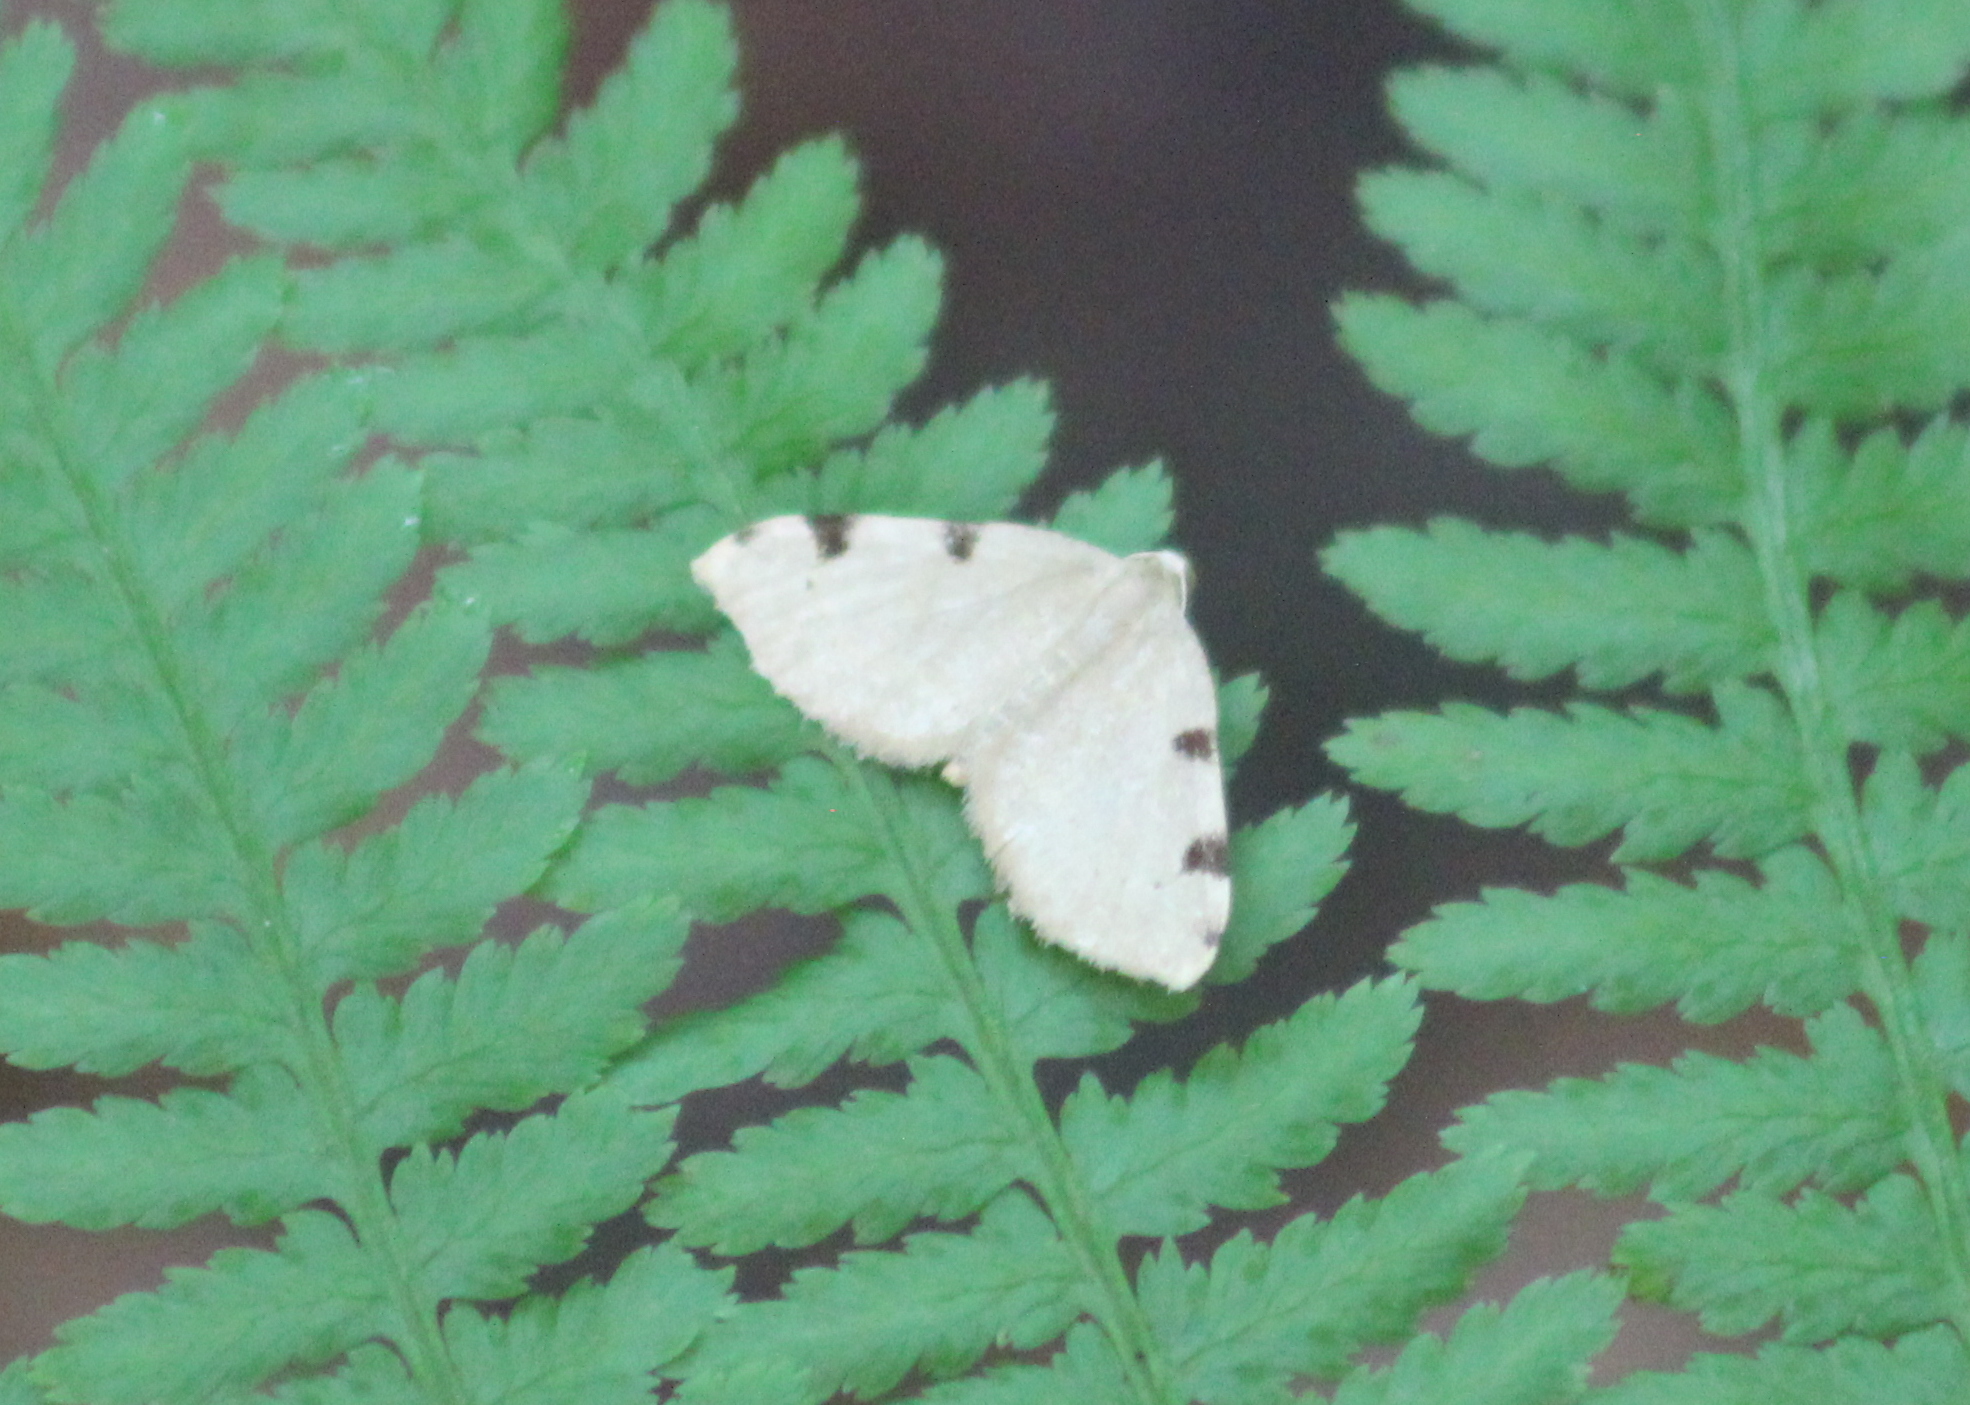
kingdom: Animalia
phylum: Arthropoda
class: Insecta
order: Lepidoptera
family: Geometridae
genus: Heterophleps
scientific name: Heterophleps triguttaria
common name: Three-spotted fillip
